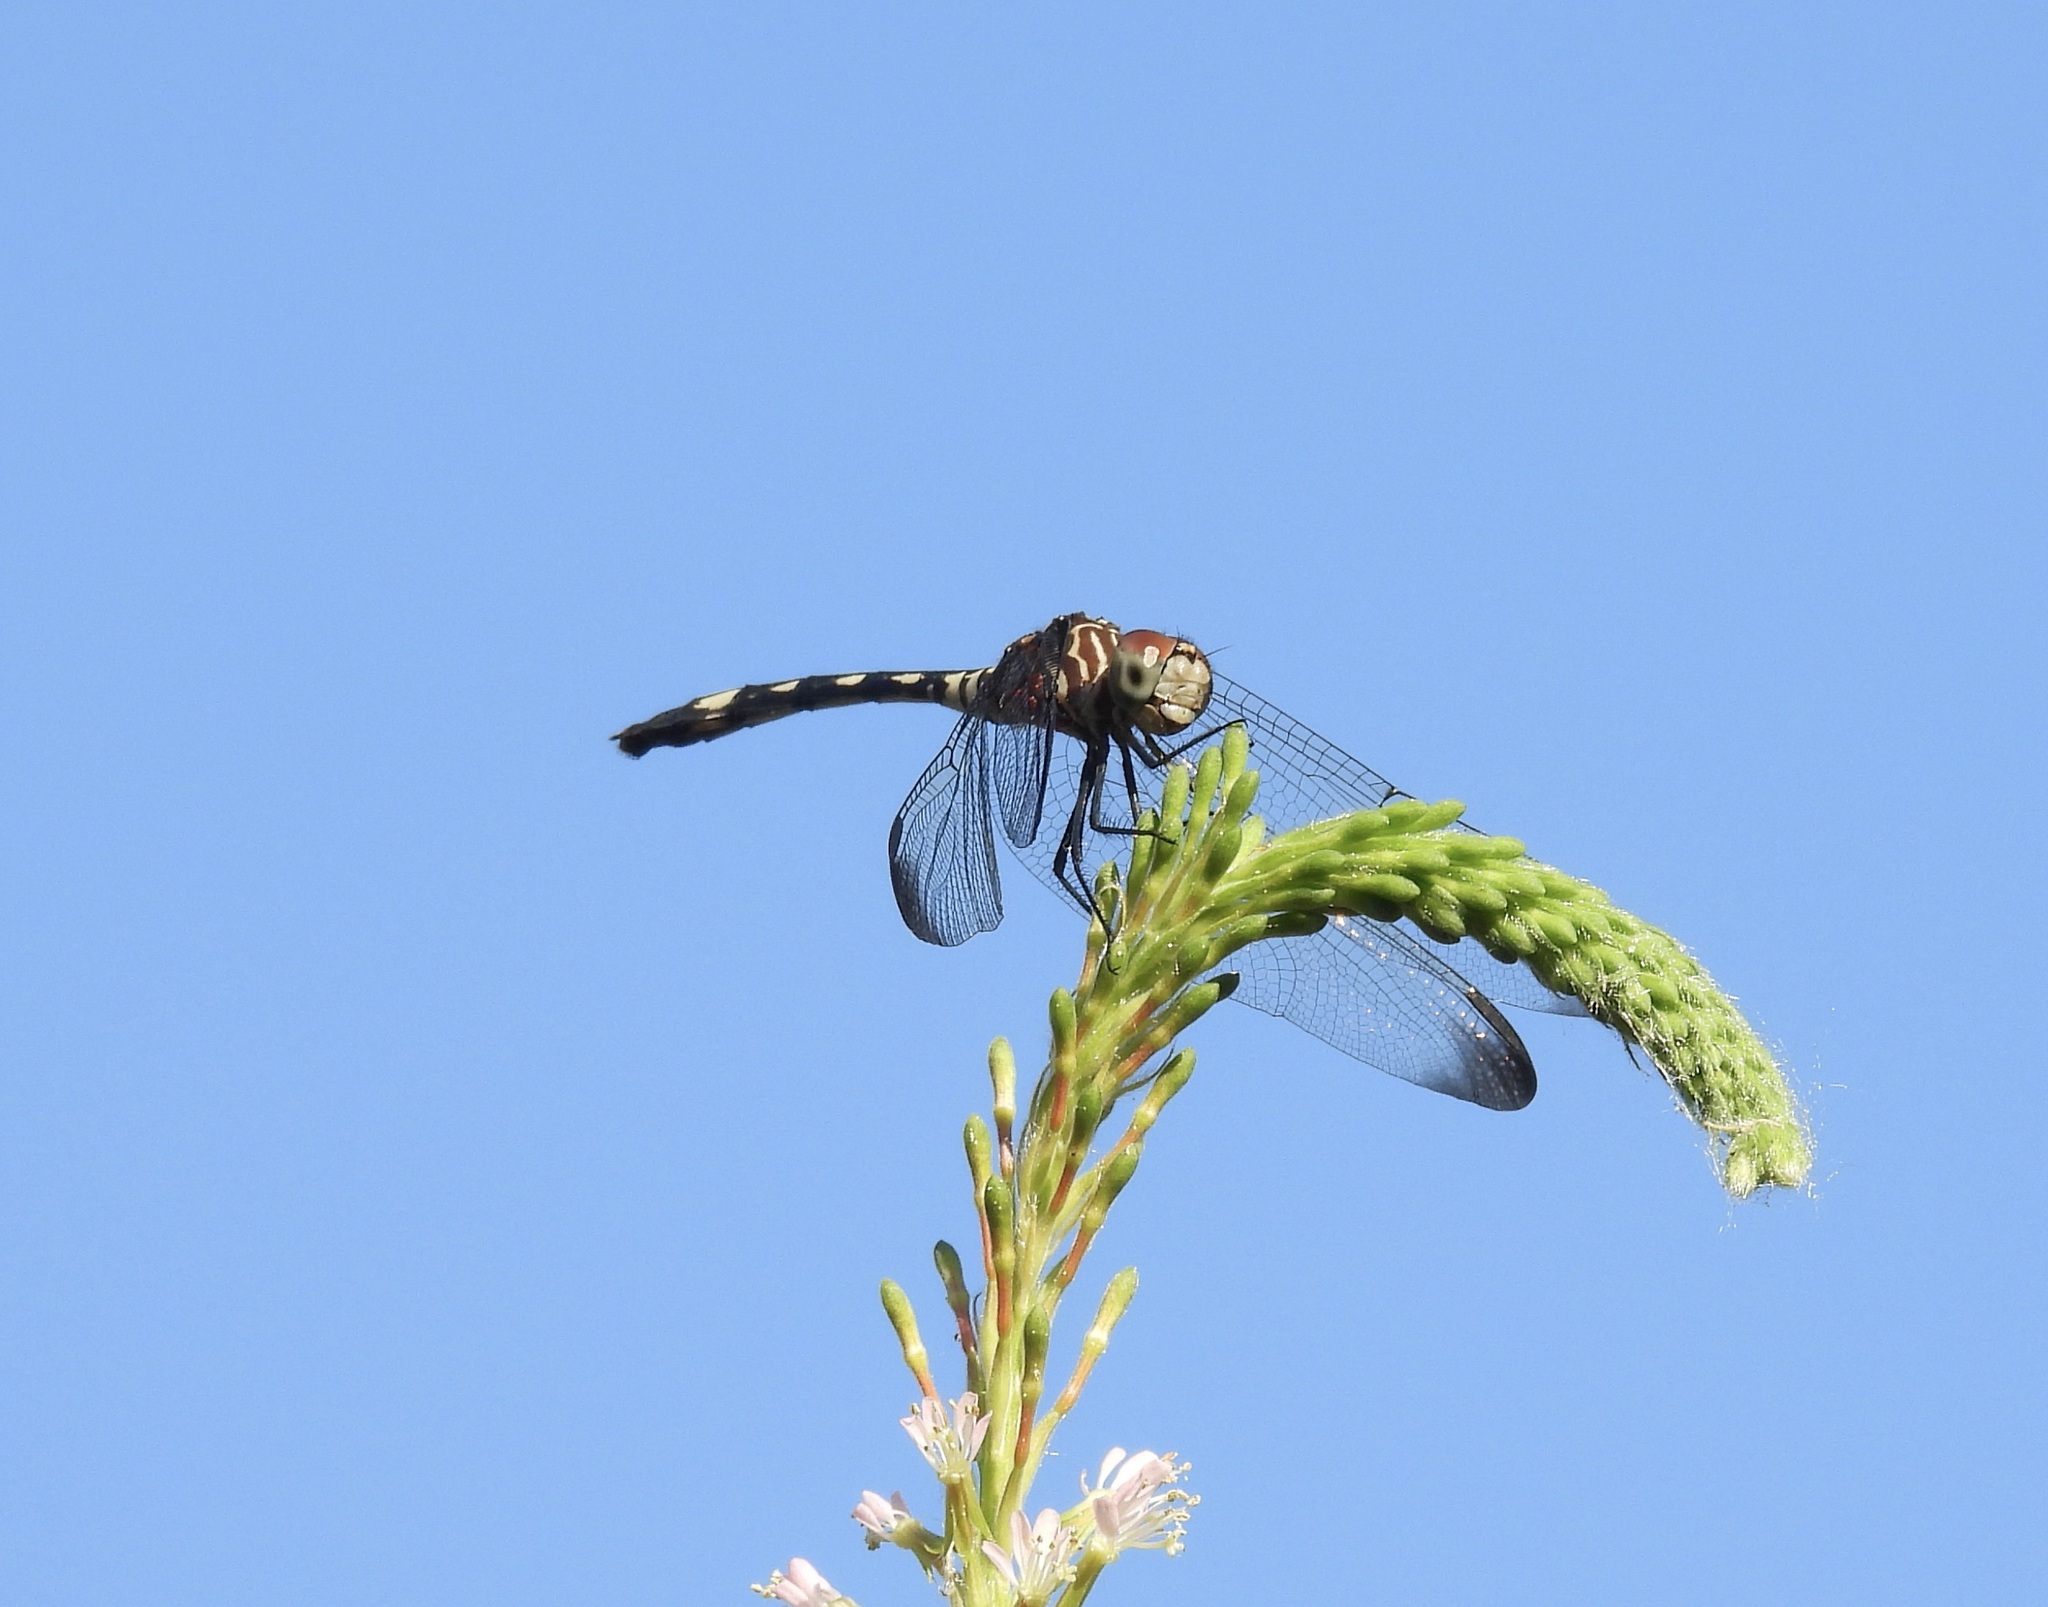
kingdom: Animalia
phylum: Arthropoda
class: Insecta
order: Odonata
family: Libellulidae
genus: Dythemis
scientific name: Dythemis velox
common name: Swift setwing
